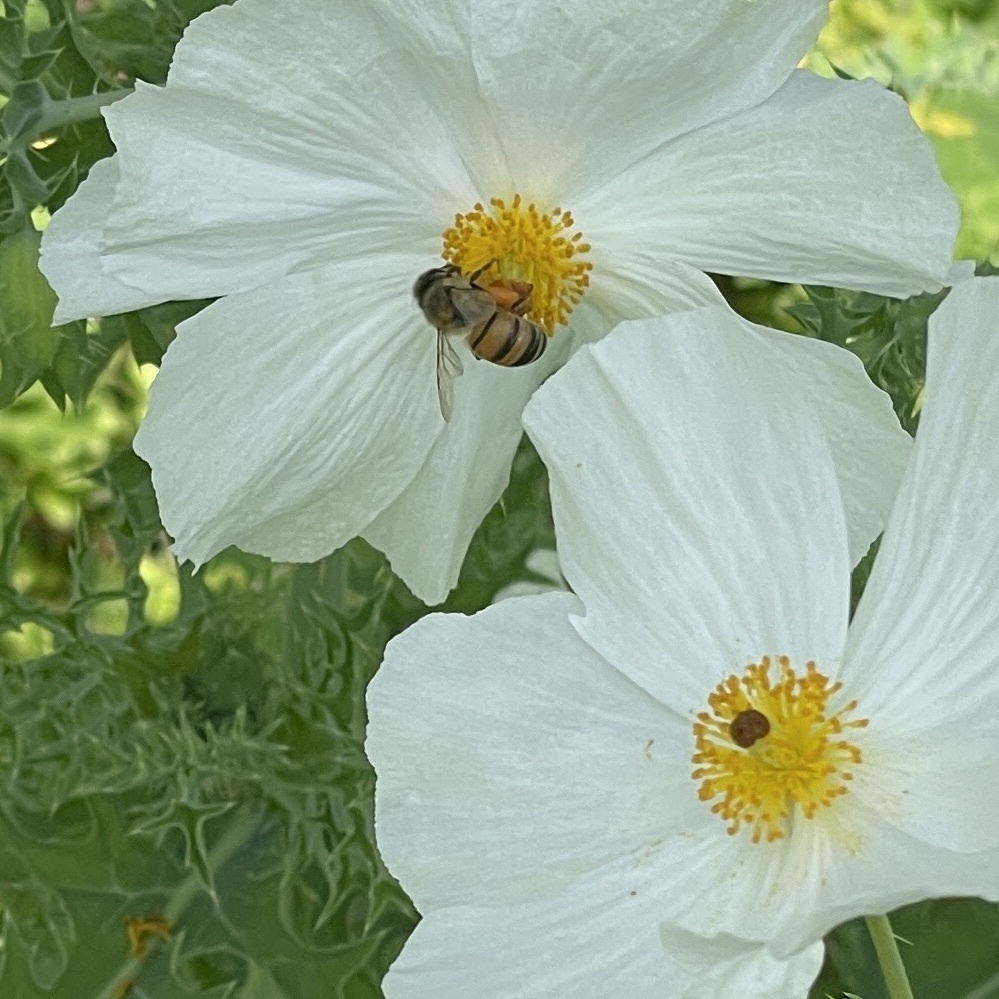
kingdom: Animalia
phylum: Arthropoda
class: Insecta
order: Hymenoptera
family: Apidae
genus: Apis
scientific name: Apis mellifera
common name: Honey bee
